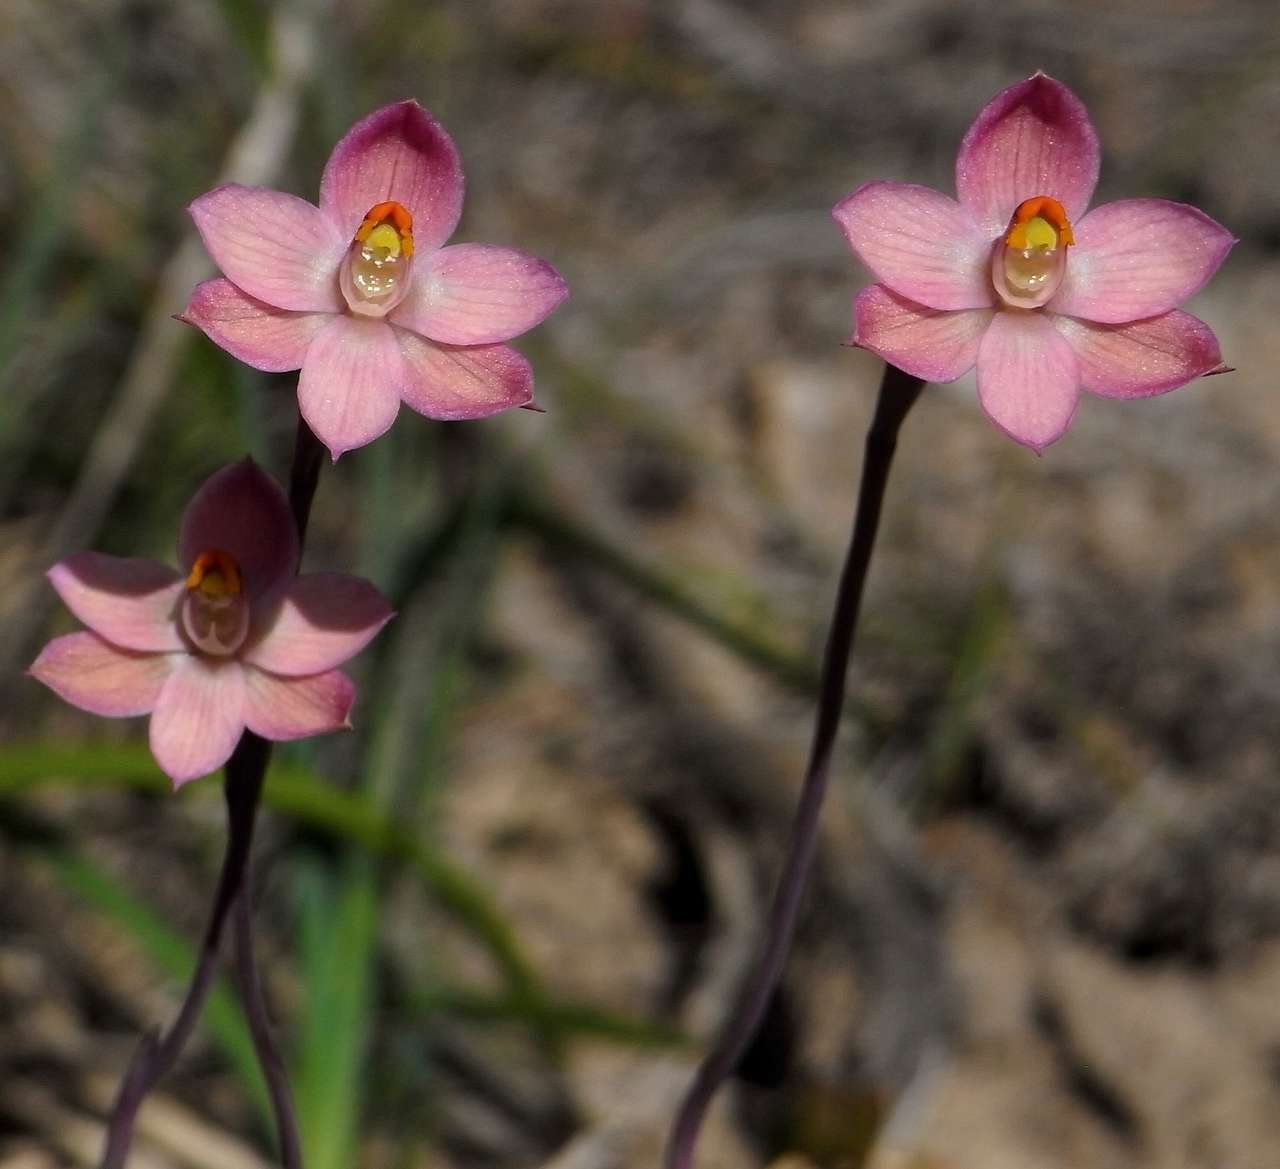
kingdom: Plantae
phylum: Tracheophyta
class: Liliopsida
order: Asparagales
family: Orchidaceae
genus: Thelymitra
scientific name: Thelymitra rubra
